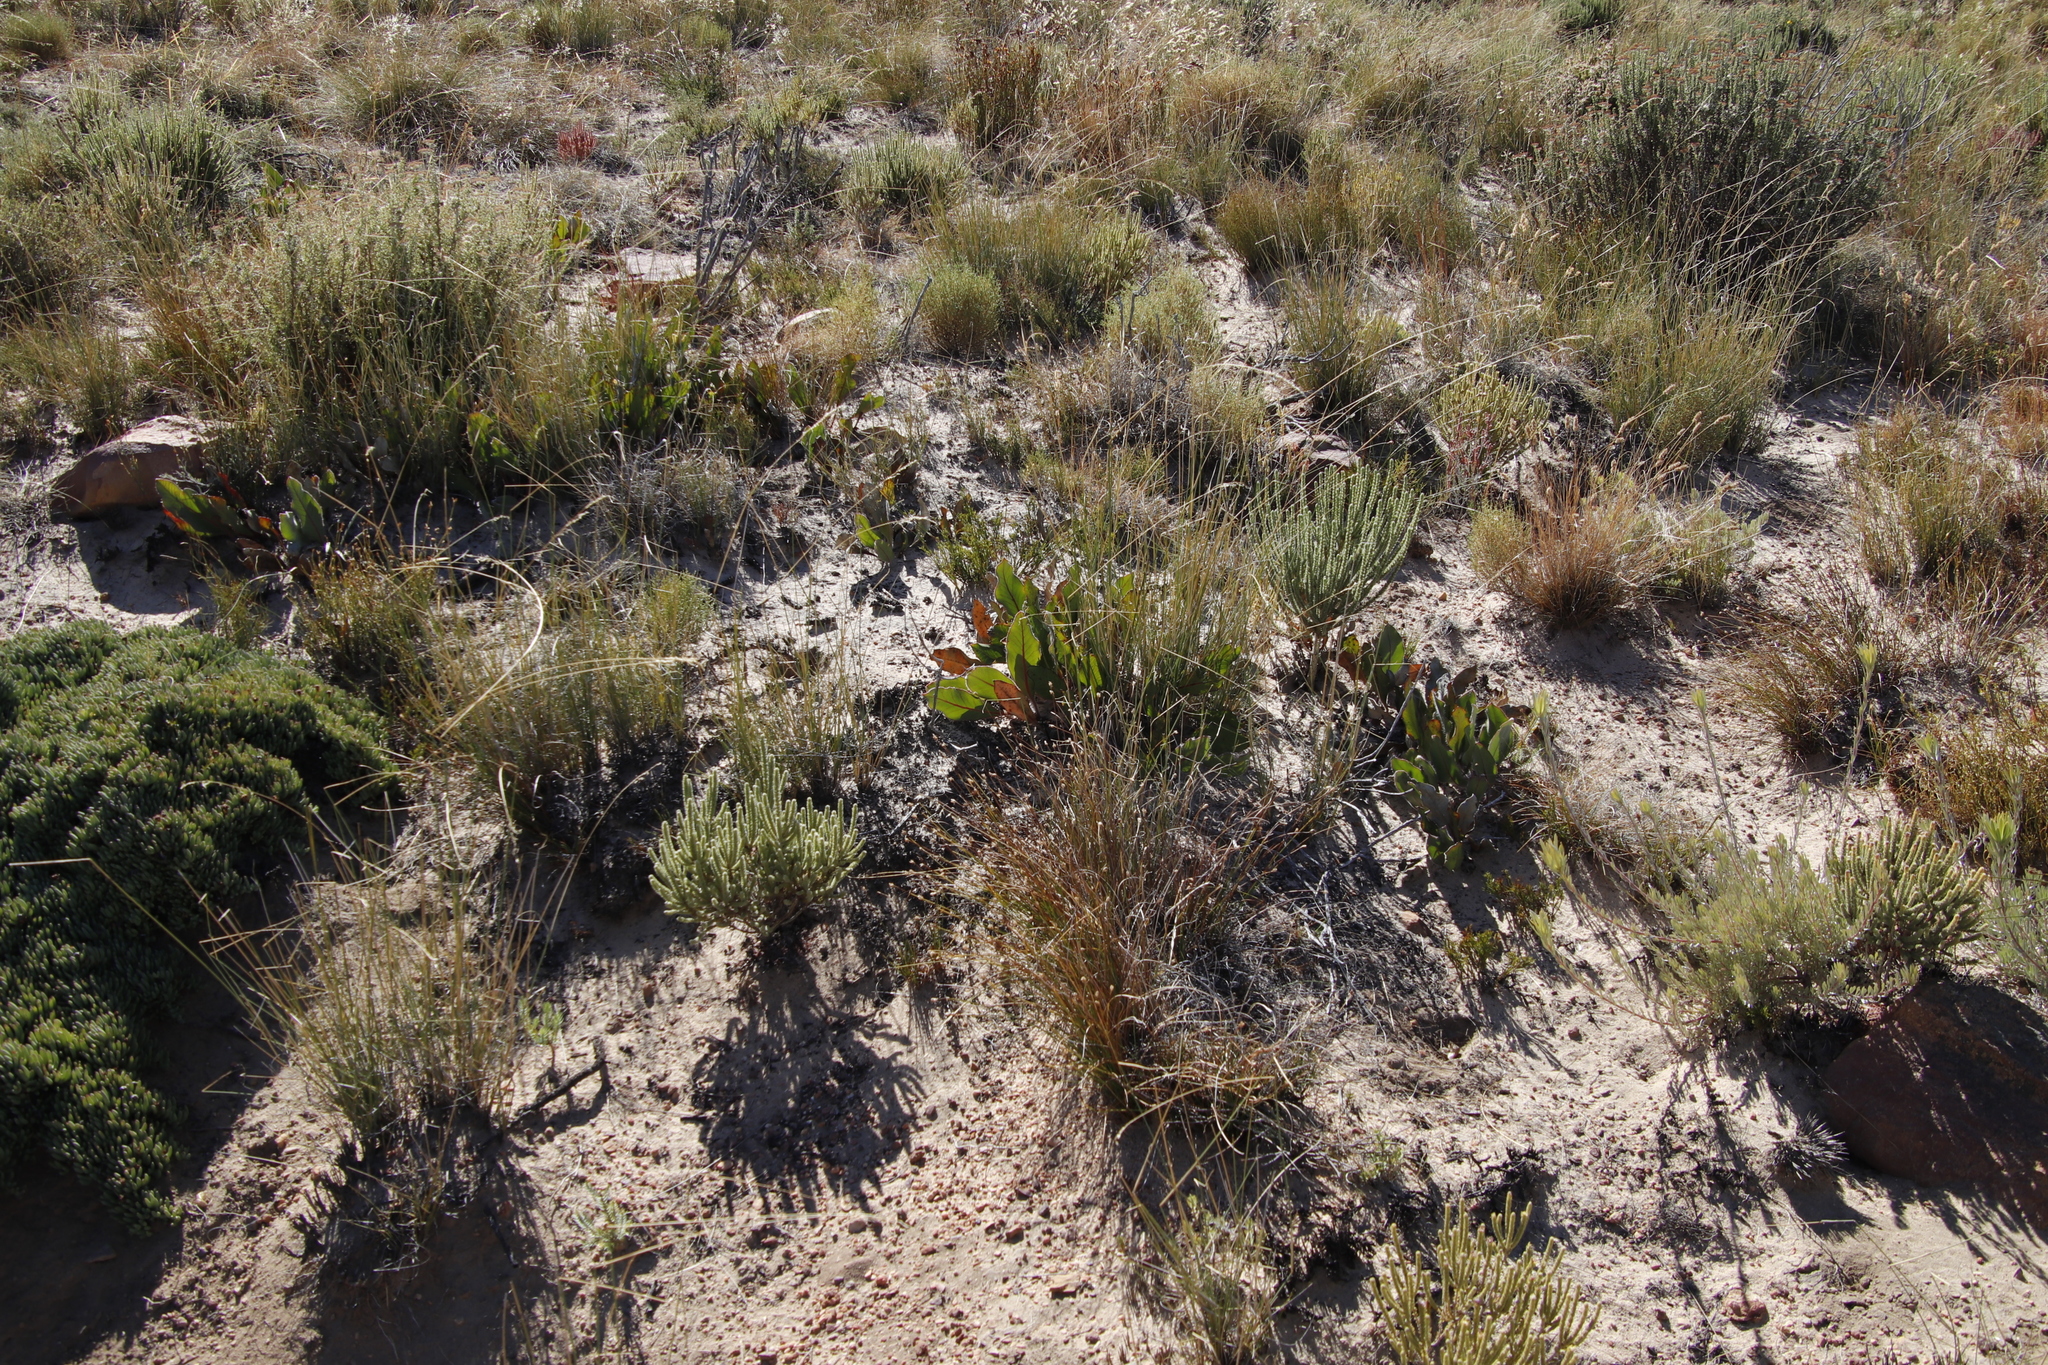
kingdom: Plantae
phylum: Tracheophyta
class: Magnoliopsida
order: Proteales
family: Proteaceae
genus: Protea
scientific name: Protea scolopendriifolia
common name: Harts-tongue-fern sugarbush
